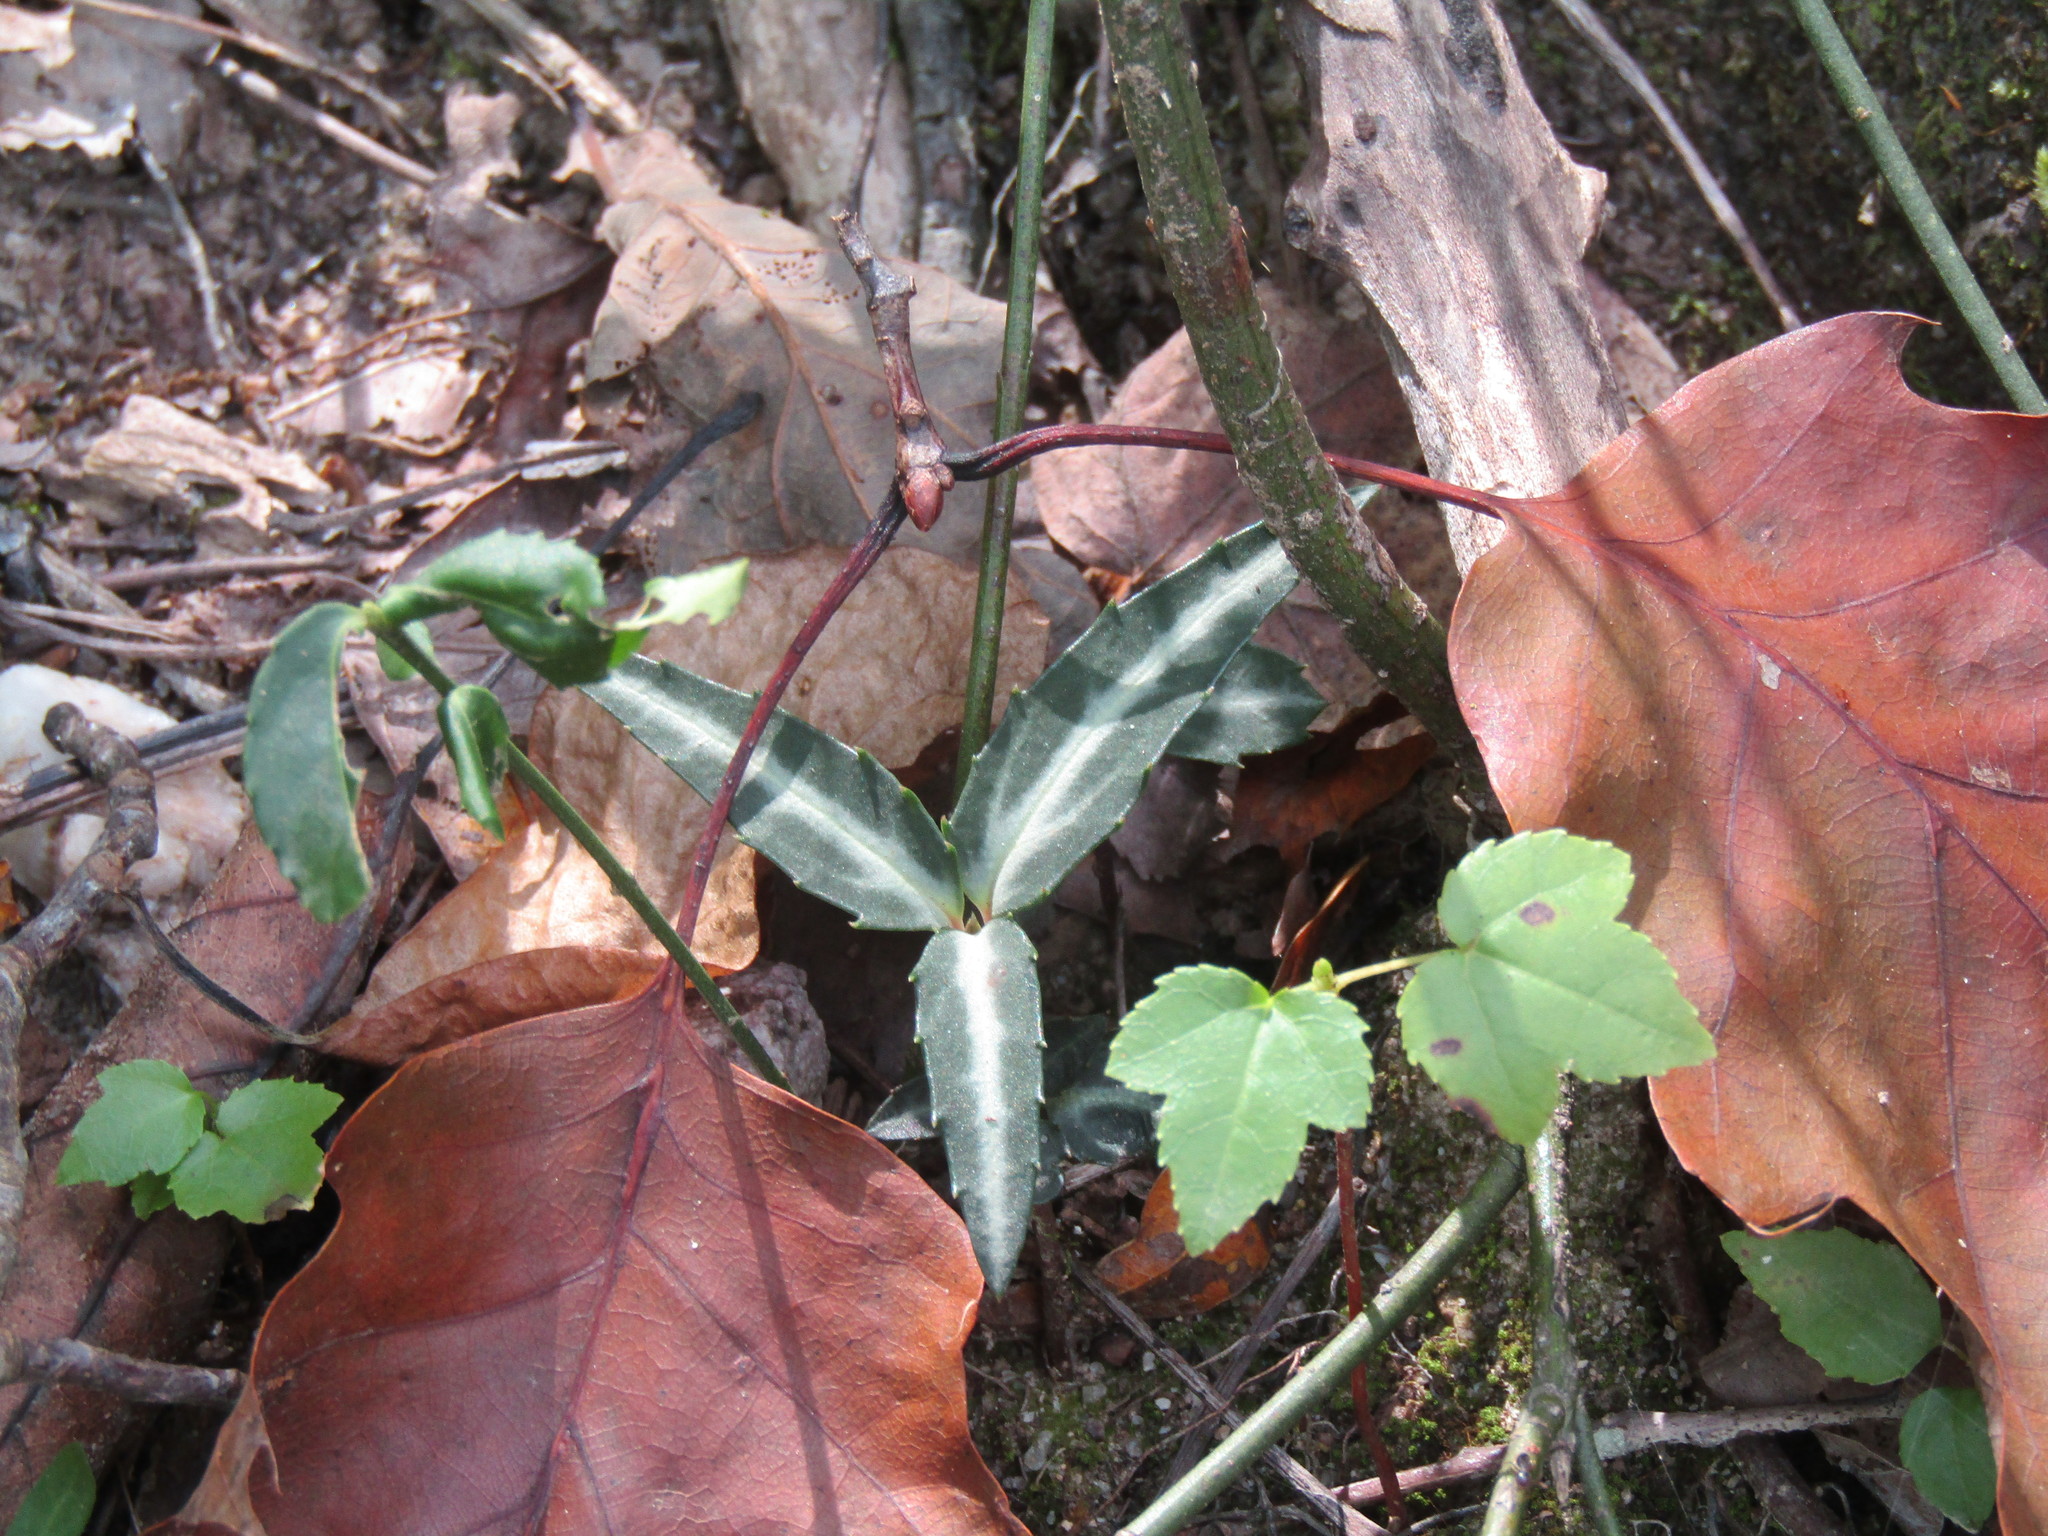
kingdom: Plantae
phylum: Tracheophyta
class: Magnoliopsida
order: Ericales
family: Ericaceae
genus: Chimaphila
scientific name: Chimaphila maculata
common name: Spotted pipsissewa
